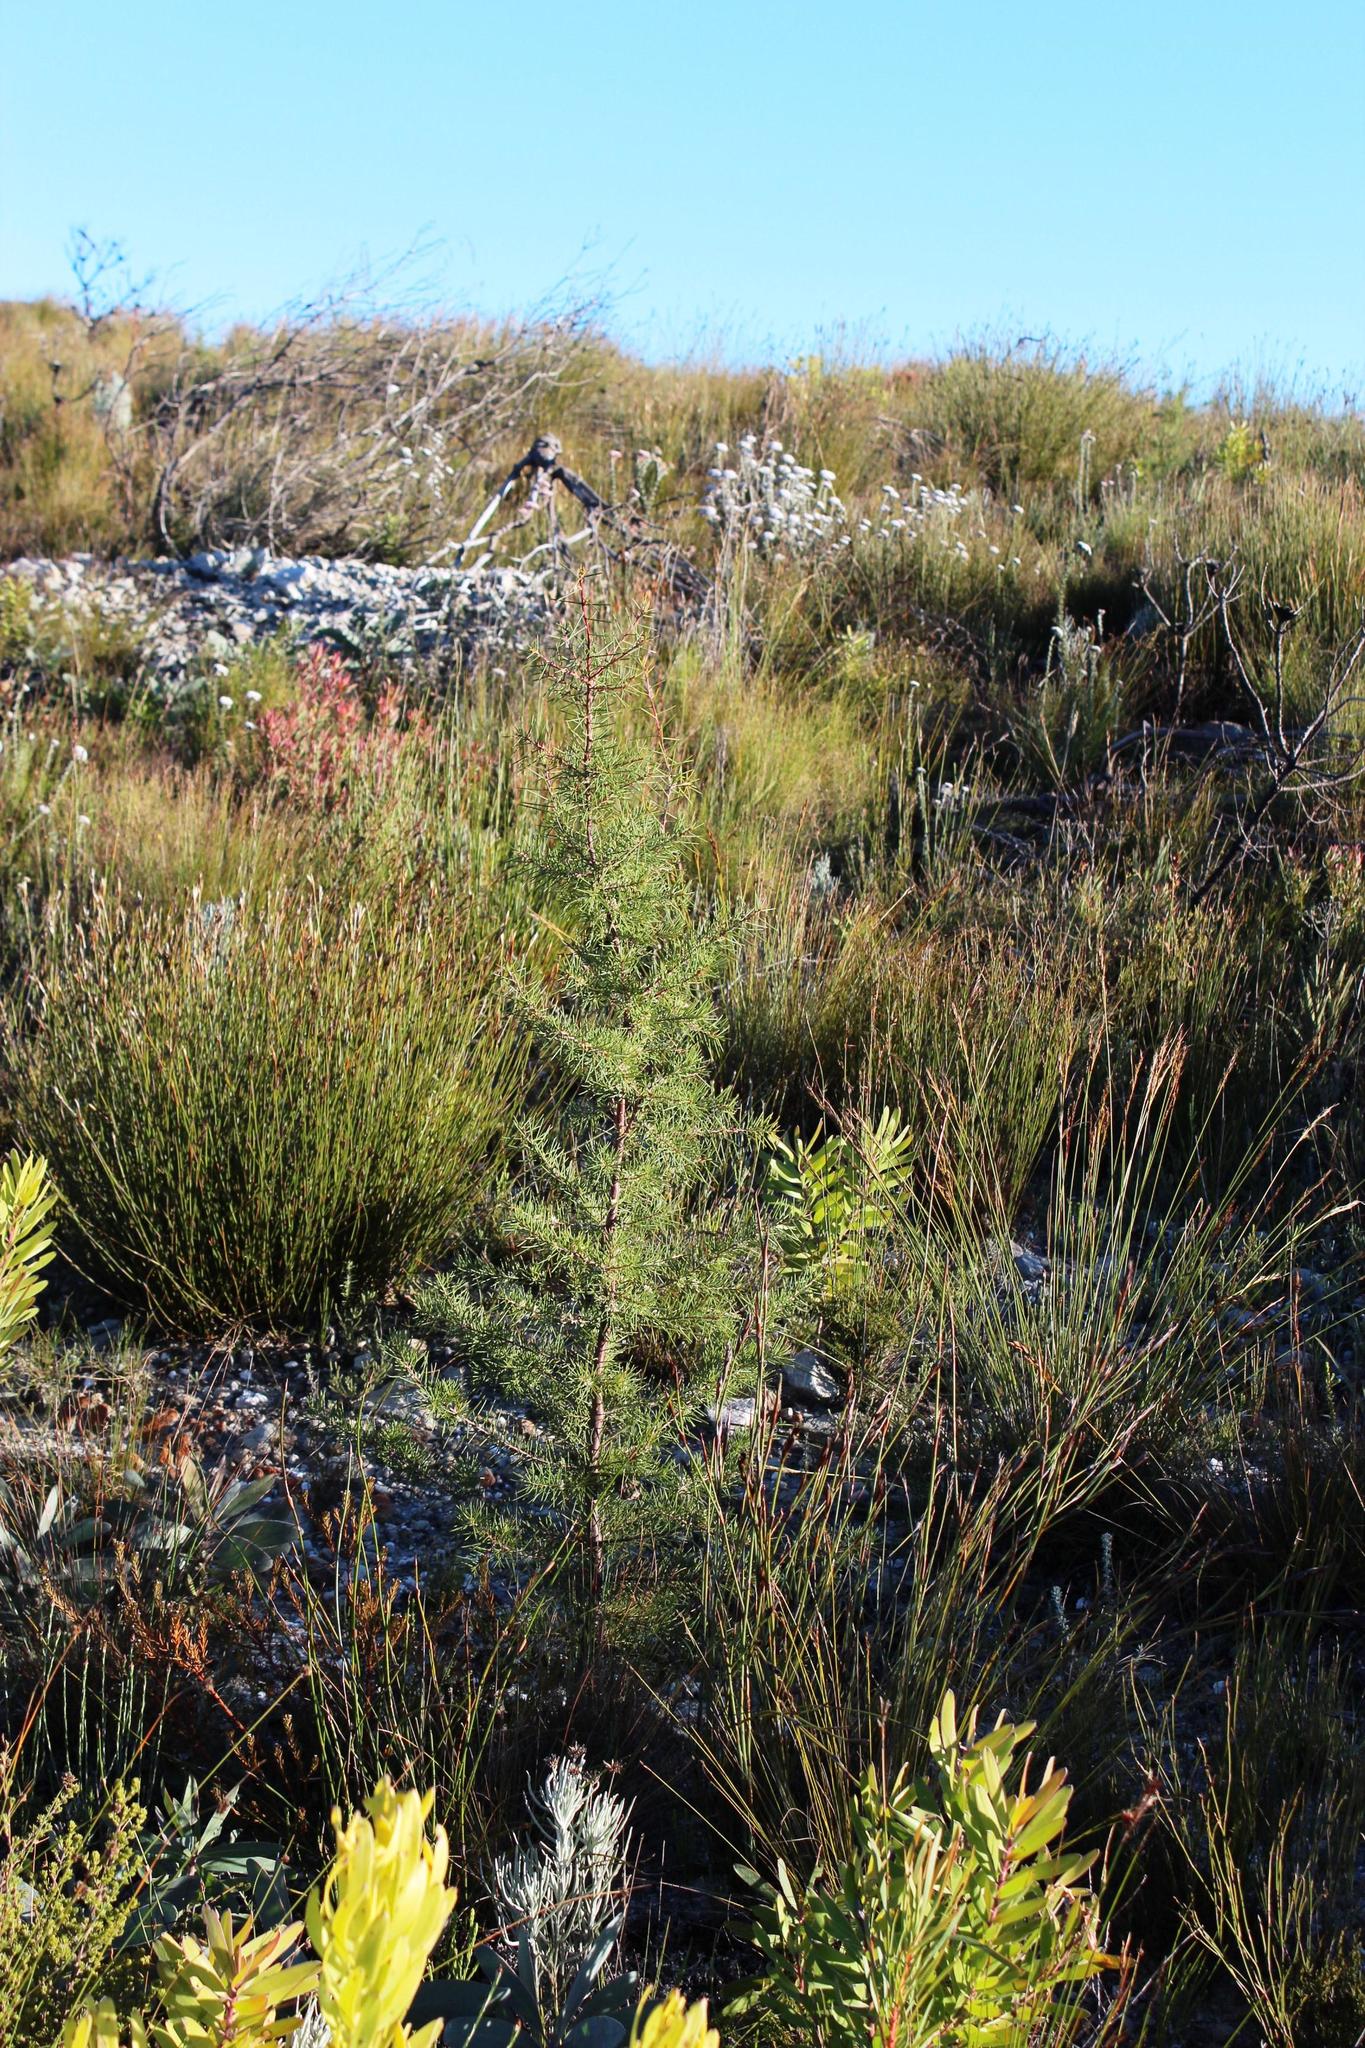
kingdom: Plantae
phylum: Tracheophyta
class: Magnoliopsida
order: Proteales
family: Proteaceae
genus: Hakea
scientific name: Hakea sericea
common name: Needle bush
